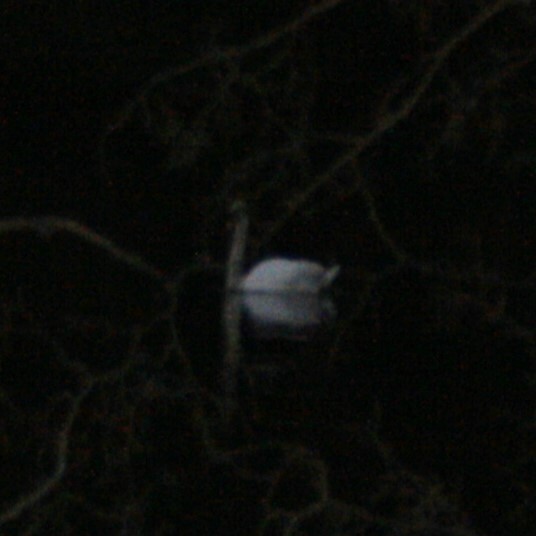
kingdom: Animalia
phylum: Chordata
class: Aves
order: Anseriformes
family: Anatidae
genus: Cygnus
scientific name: Cygnus olor
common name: Mute swan
